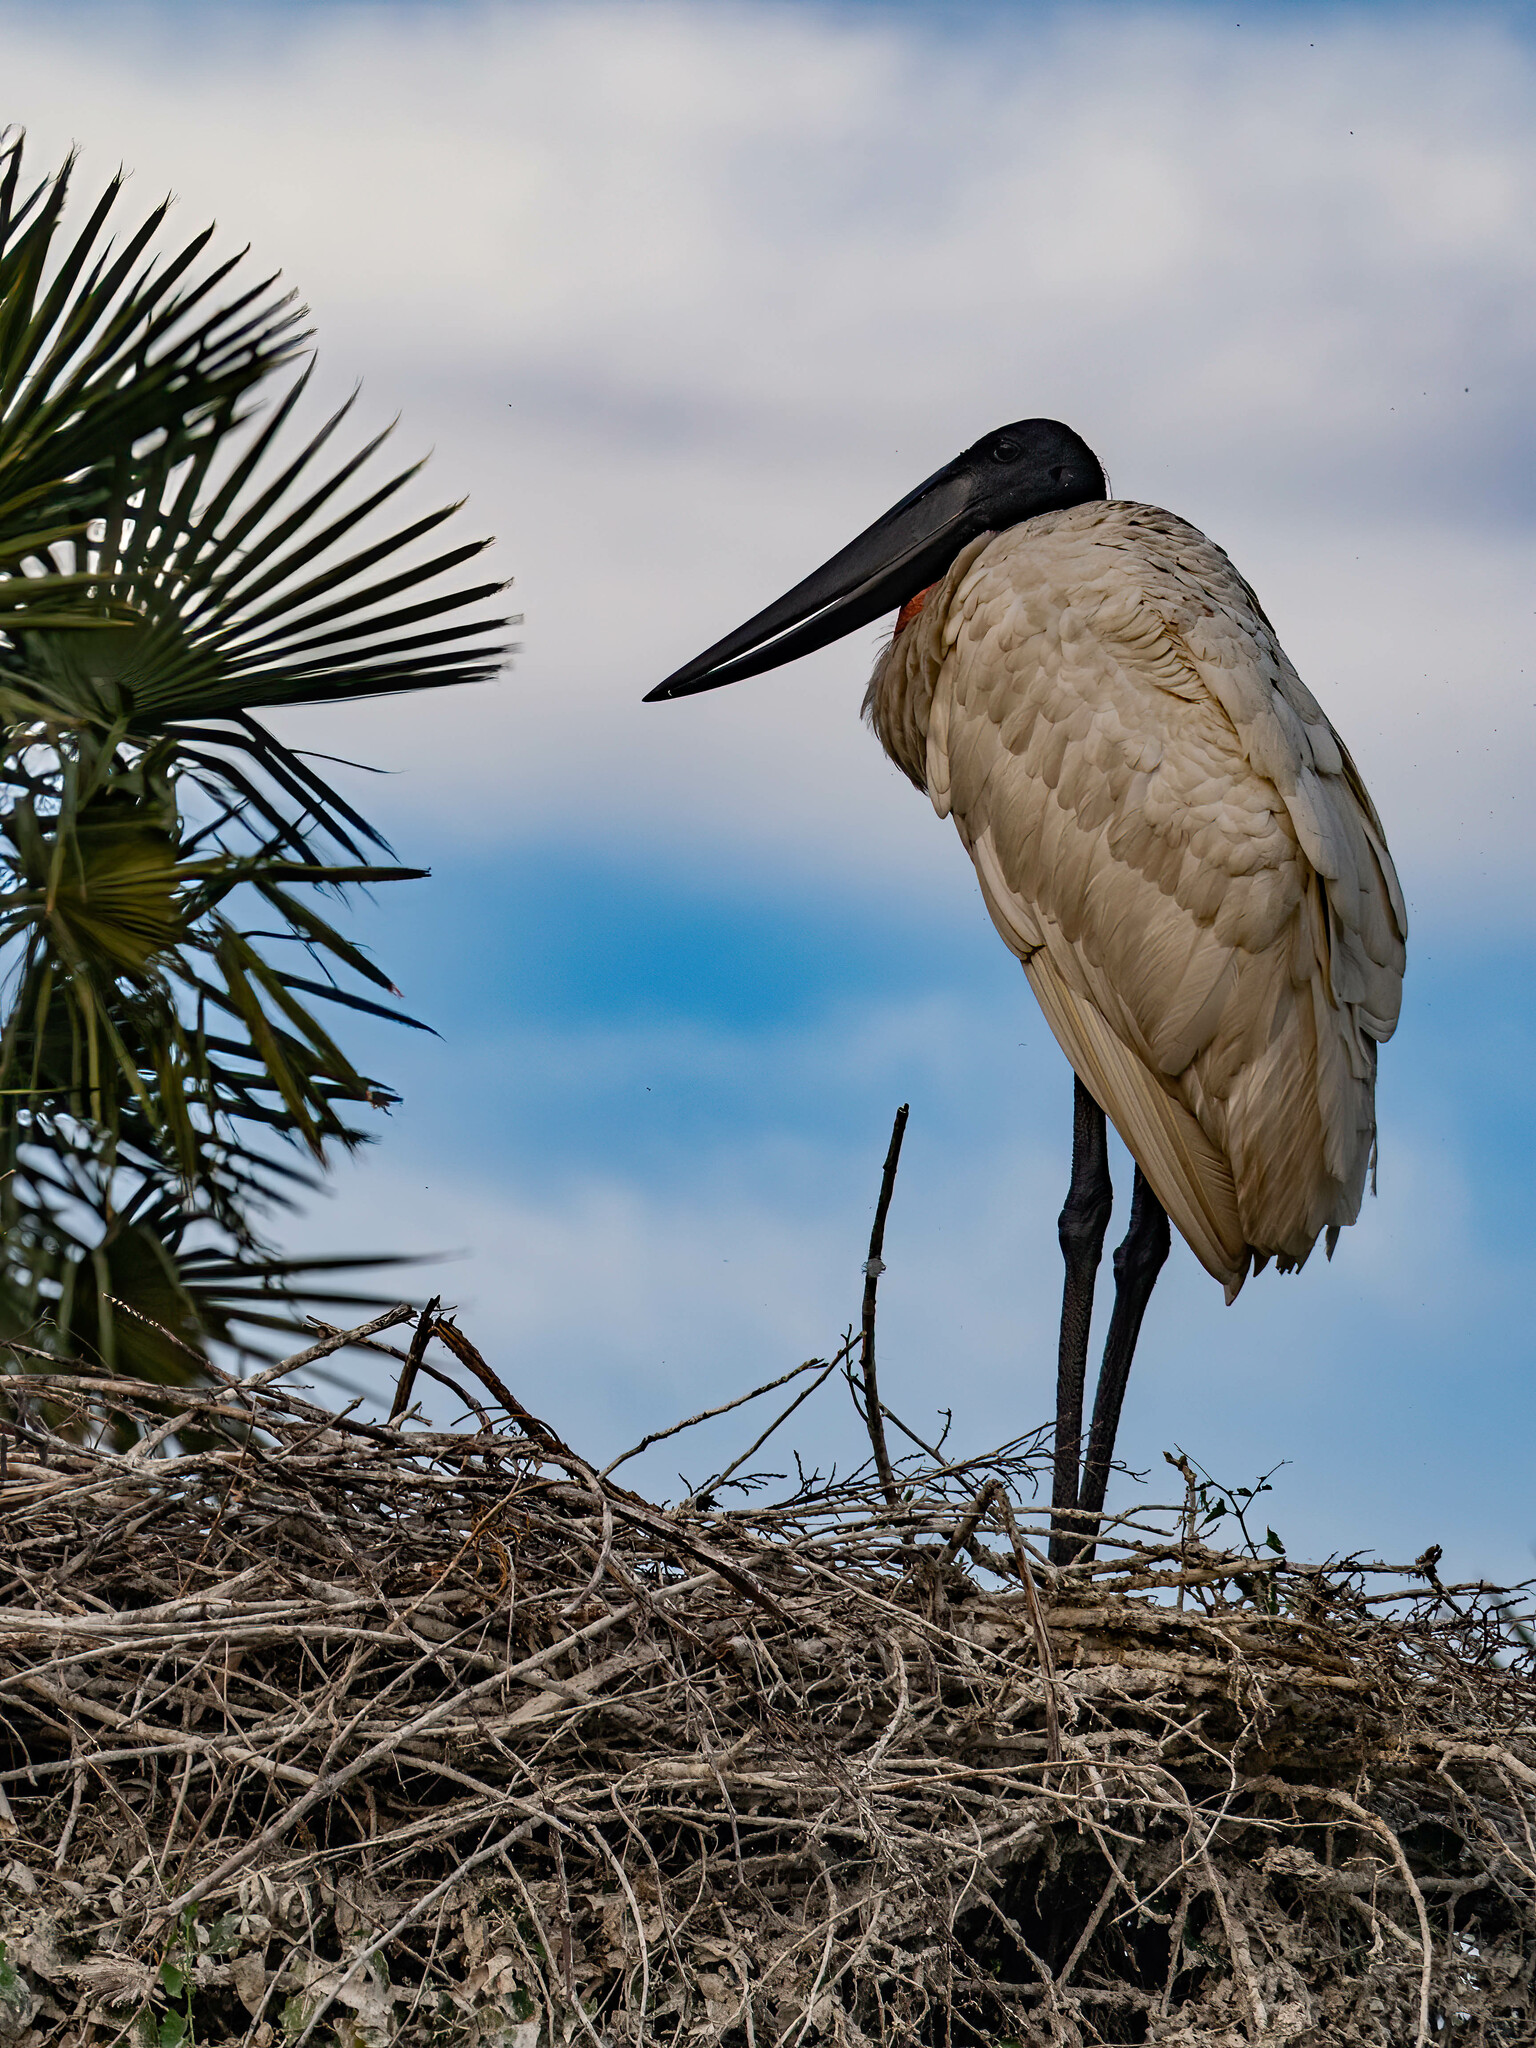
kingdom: Animalia
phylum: Chordata
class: Aves
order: Ciconiiformes
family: Ciconiidae
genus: Jabiru
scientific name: Jabiru mycteria
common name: Jabiru
